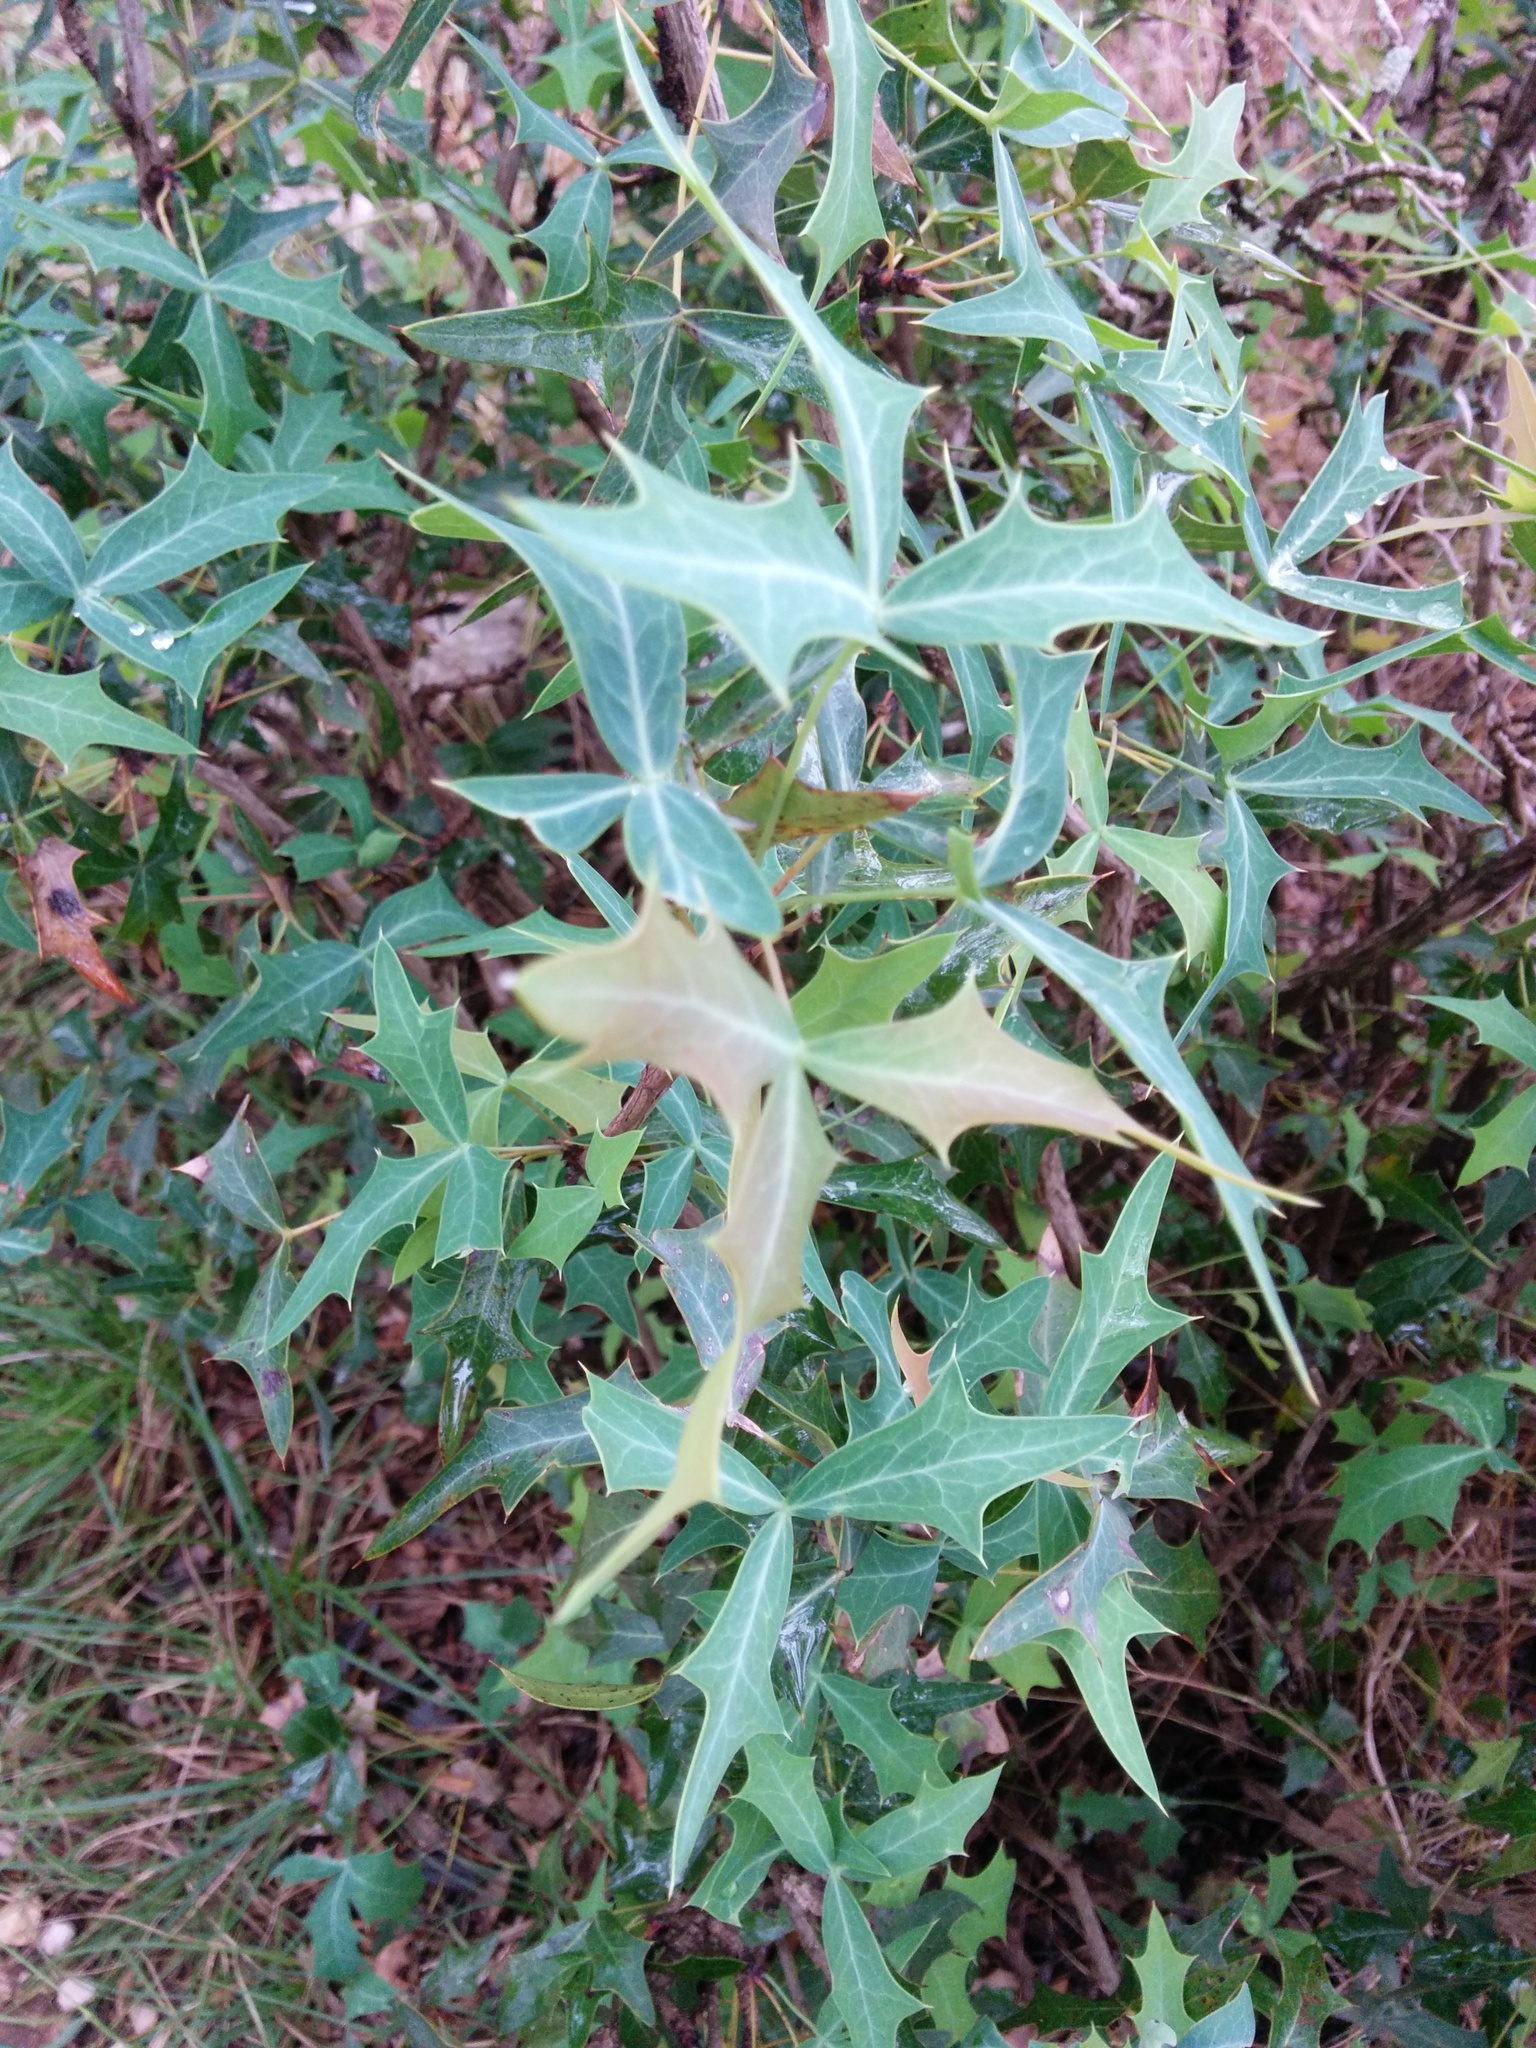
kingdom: Plantae
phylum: Tracheophyta
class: Magnoliopsida
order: Ranunculales
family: Berberidaceae
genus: Alloberberis
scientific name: Alloberberis trifoliolata
